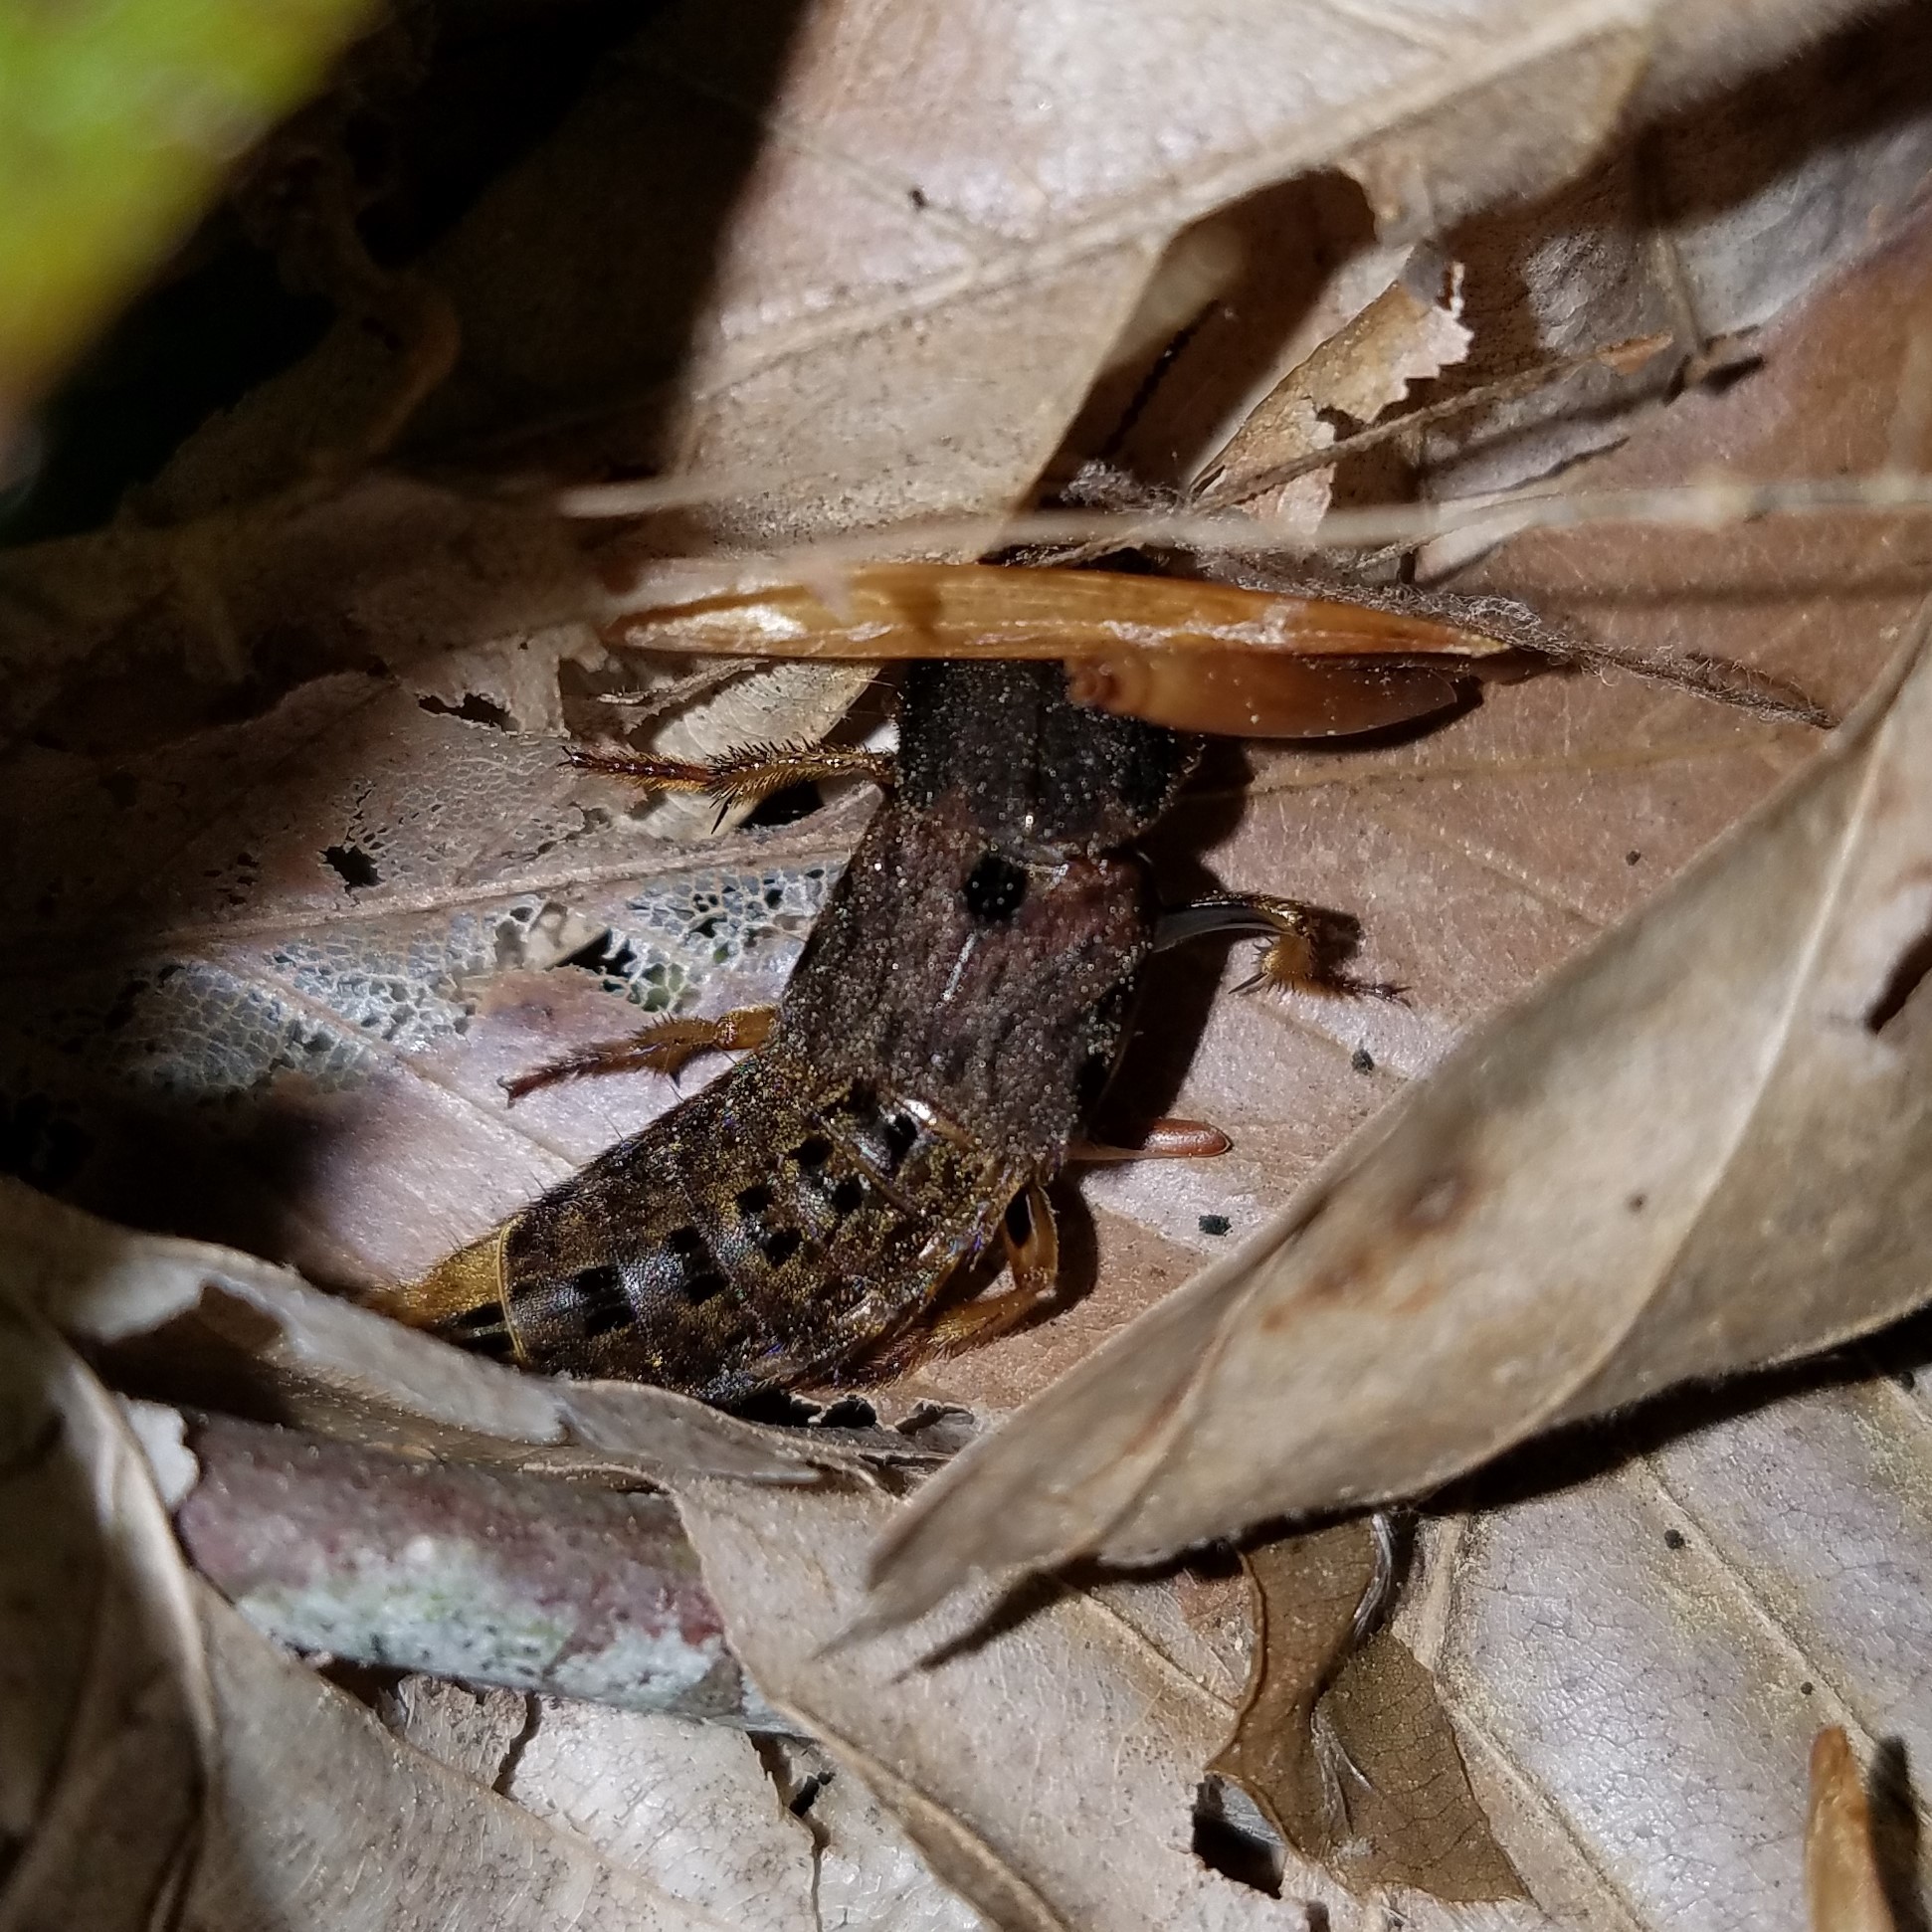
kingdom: Animalia
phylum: Arthropoda
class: Insecta
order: Coleoptera
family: Staphylinidae
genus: Platydracus
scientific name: Platydracus maculosus
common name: Brown rove beetle
